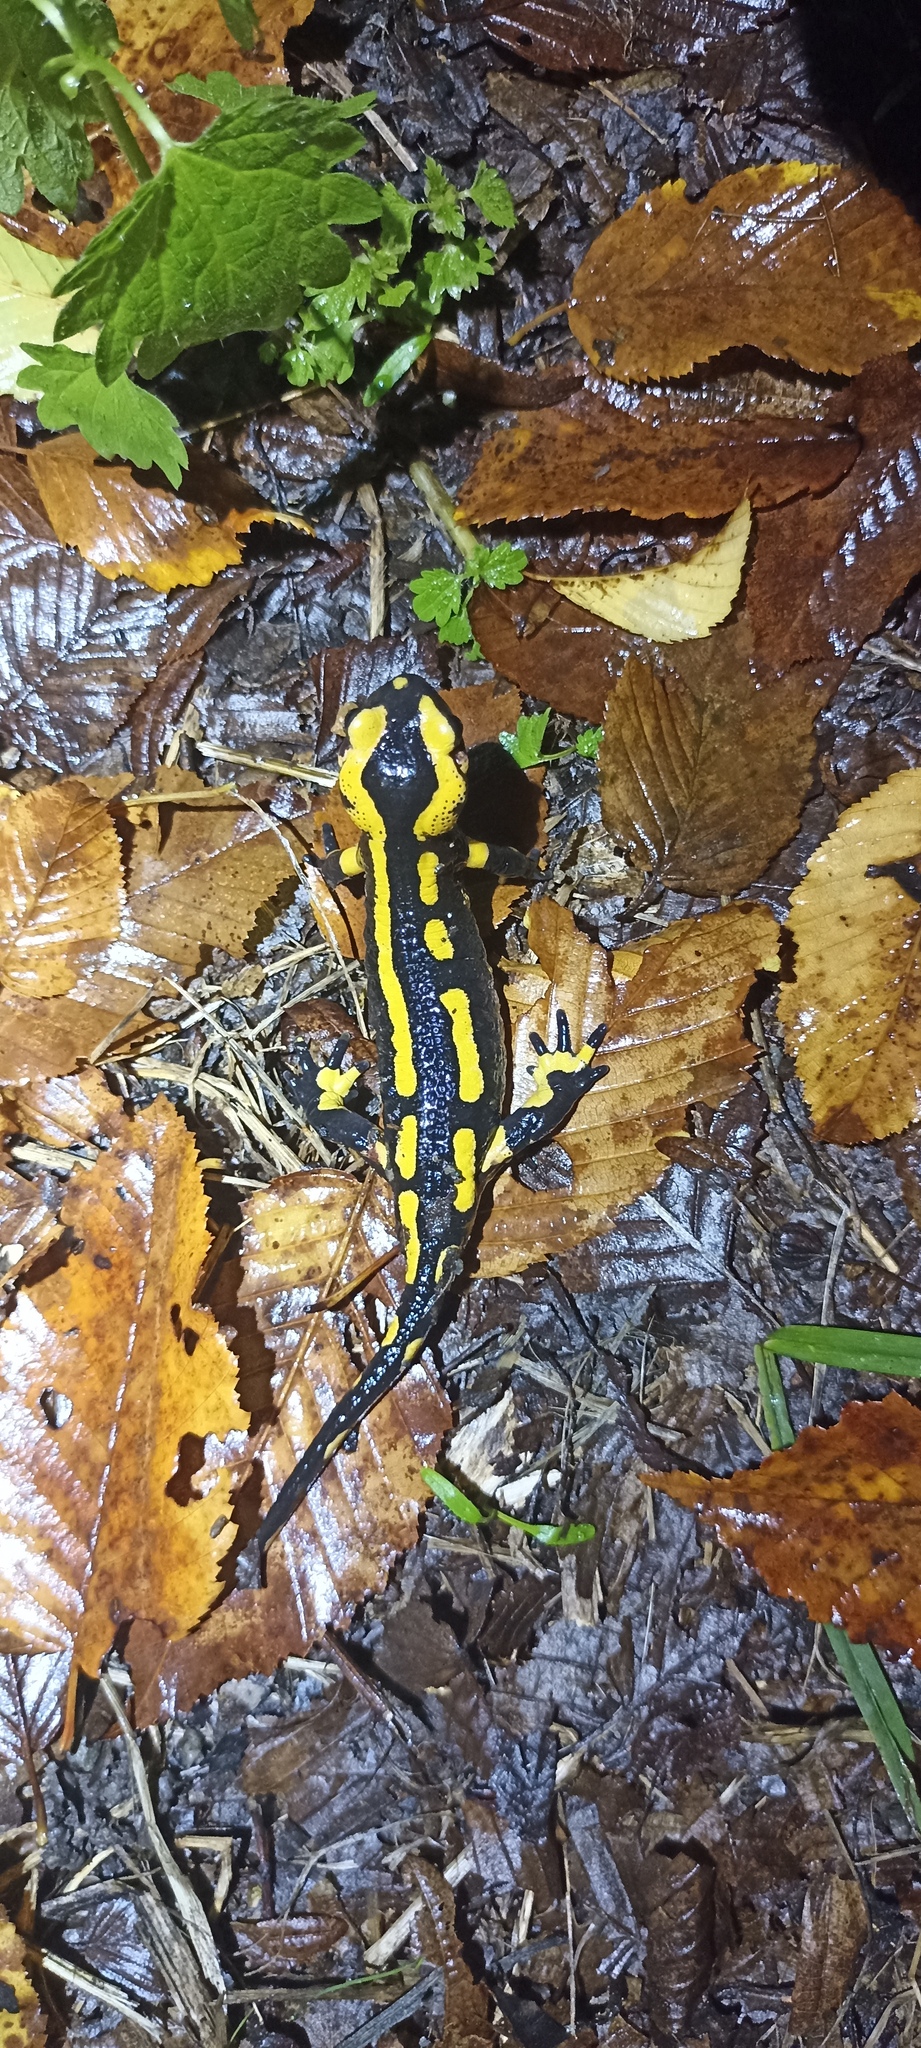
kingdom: Animalia
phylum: Chordata
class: Amphibia
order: Caudata
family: Salamandridae
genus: Salamandra
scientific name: Salamandra salamandra
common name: Fire salamander
